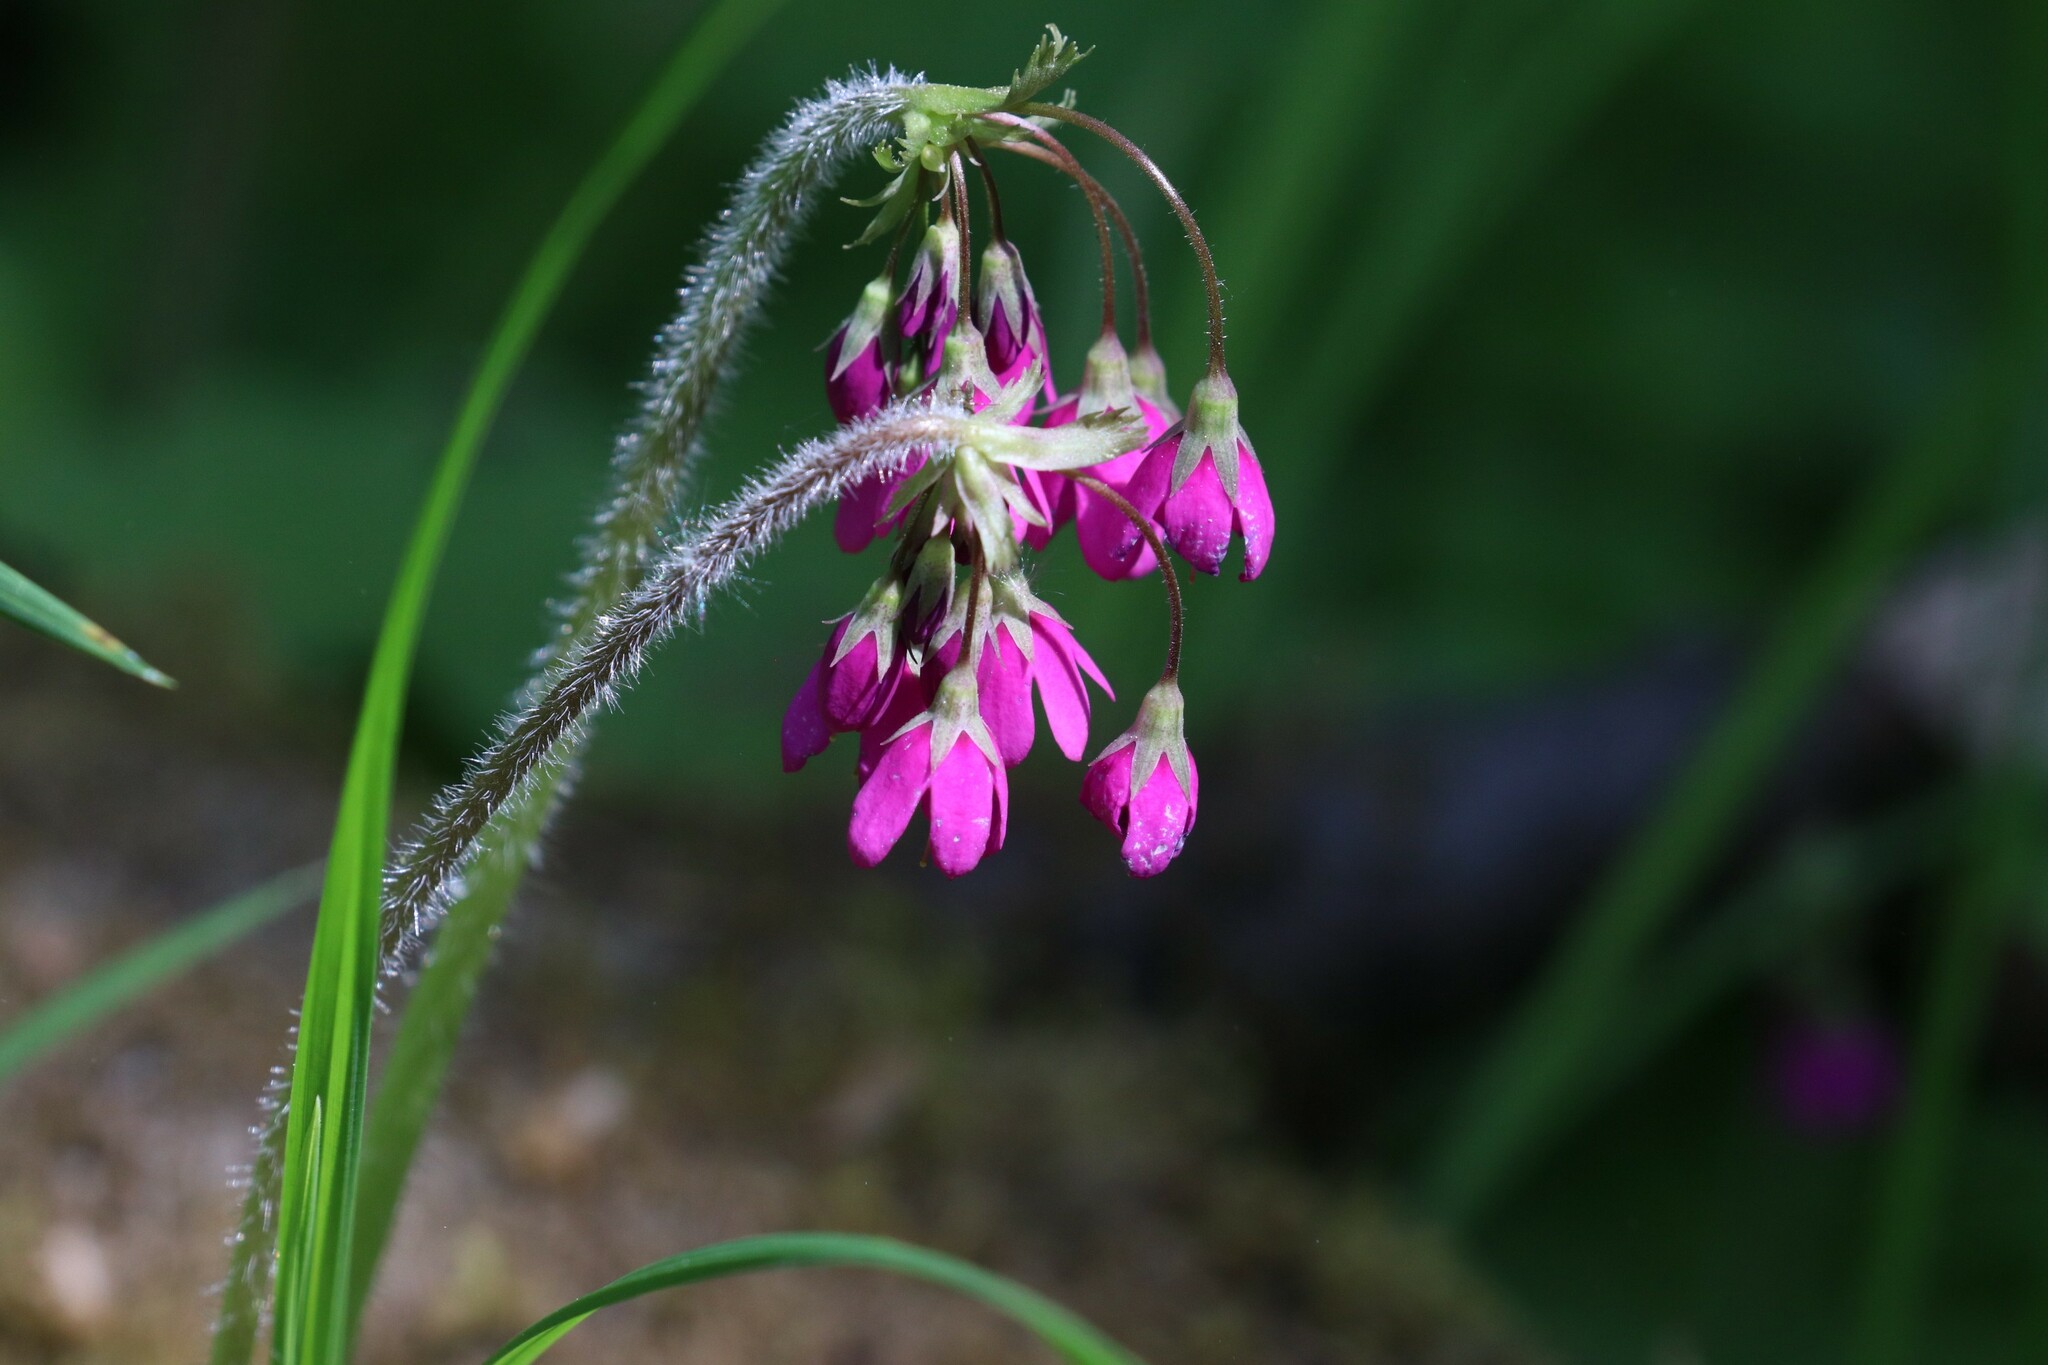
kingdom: Plantae
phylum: Tracheophyta
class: Magnoliopsida
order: Ericales
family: Primulaceae
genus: Primula
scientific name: Primula matthioli
